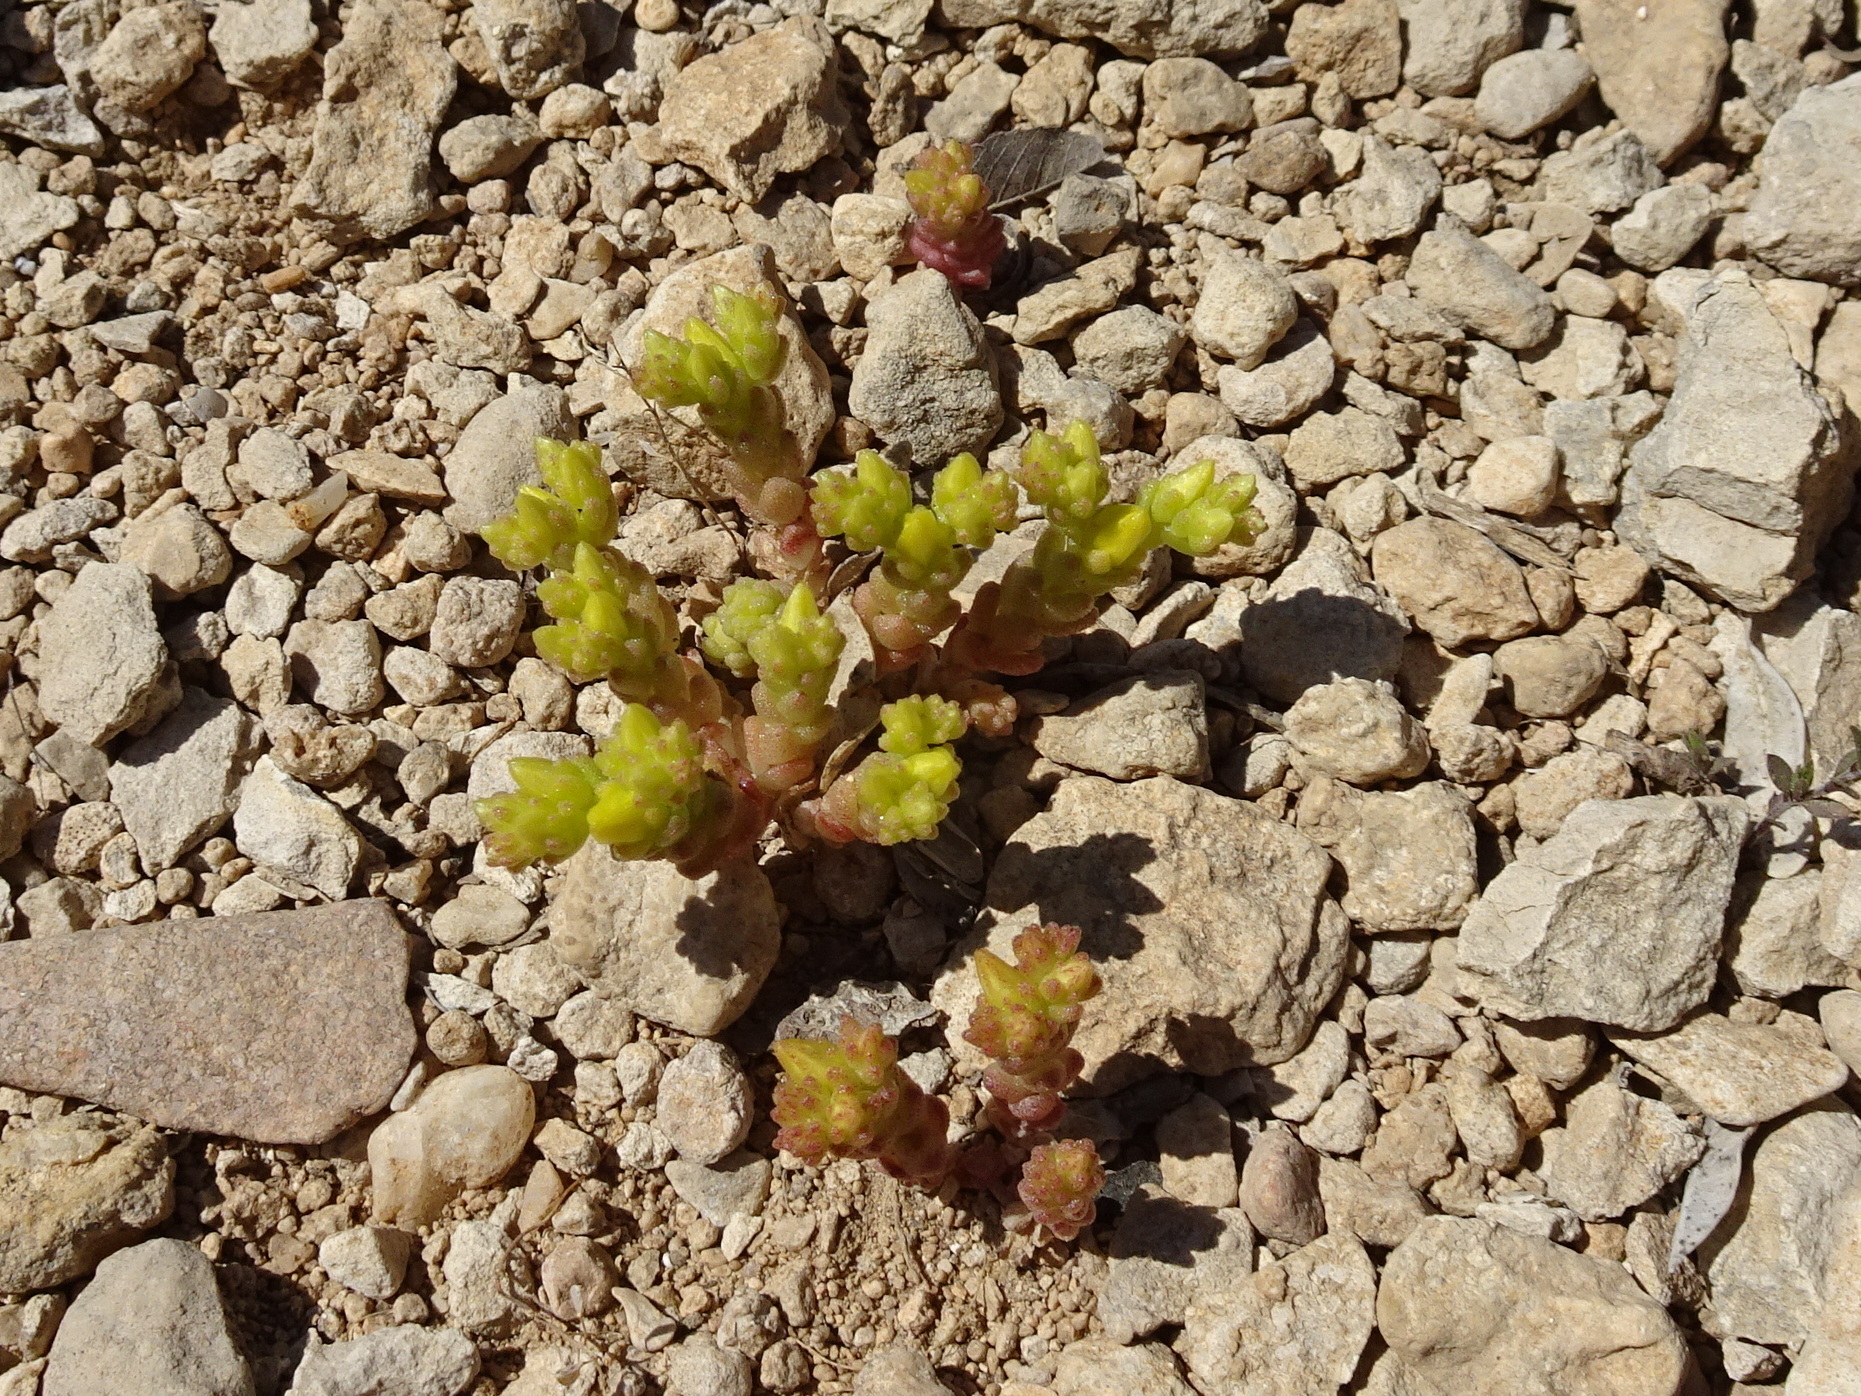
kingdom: Plantae
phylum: Tracheophyta
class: Magnoliopsida
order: Saxifragales
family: Crassulaceae
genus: Sedum
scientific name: Sedum acre
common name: Biting stonecrop
